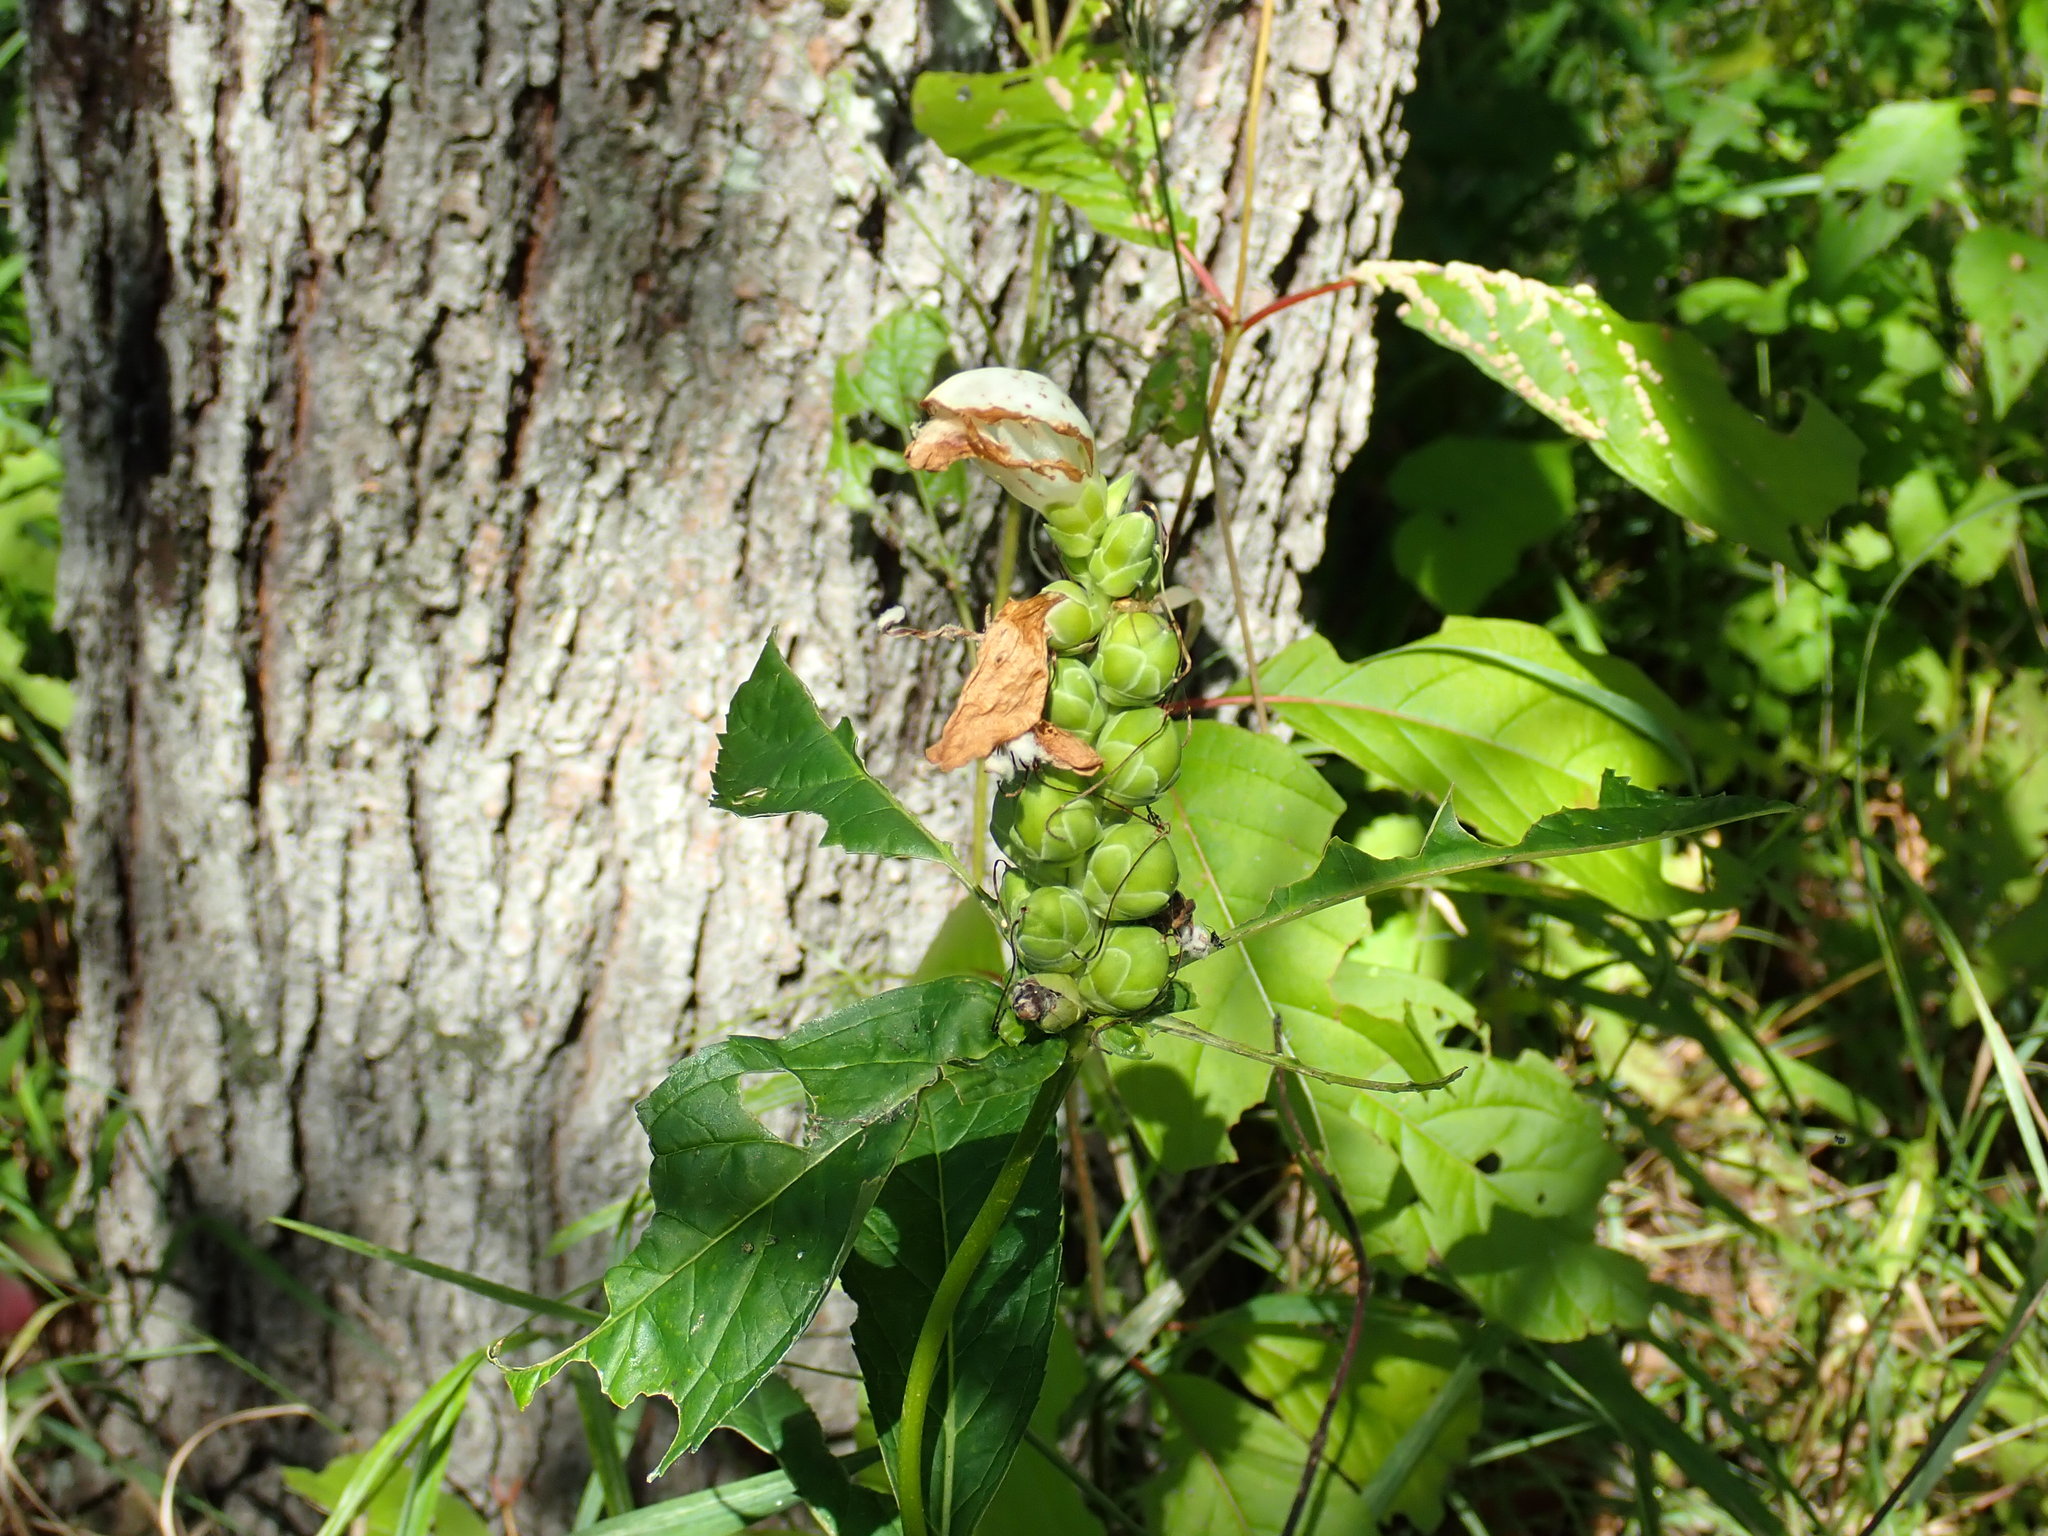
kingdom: Plantae
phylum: Tracheophyta
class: Magnoliopsida
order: Lamiales
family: Plantaginaceae
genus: Chelone
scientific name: Chelone glabra
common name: Snakehead
